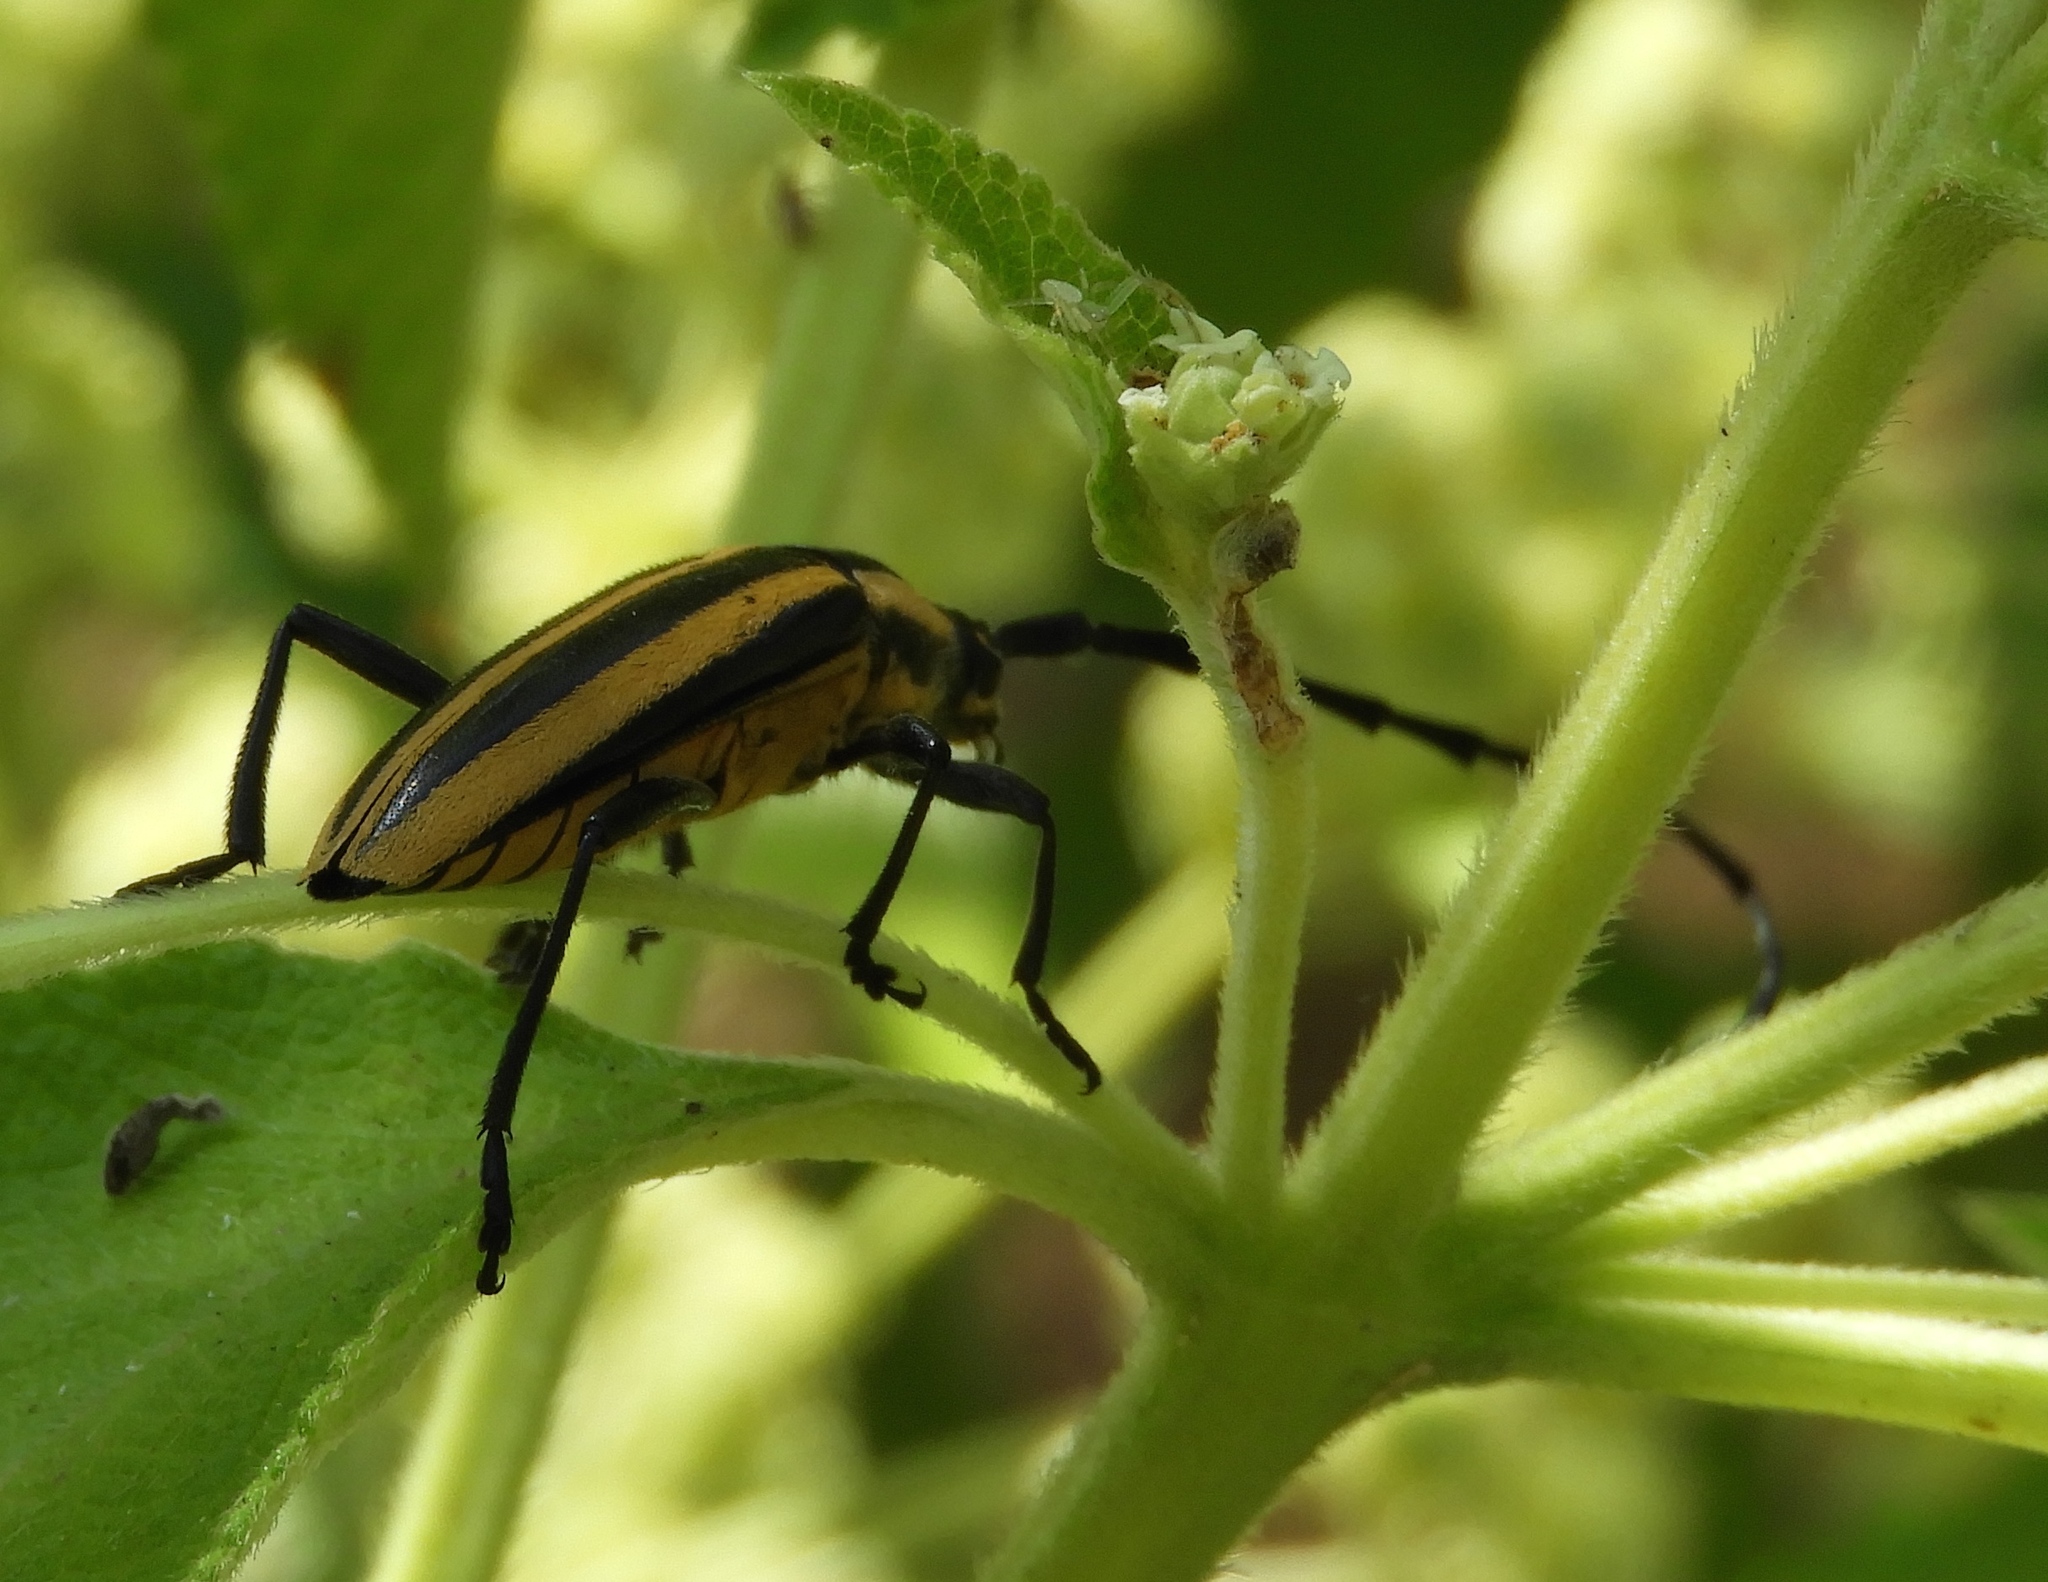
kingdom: Animalia
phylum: Arthropoda
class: Insecta
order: Coleoptera
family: Cerambycidae
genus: Sphaenothecus
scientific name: Sphaenothecus trilineatus
